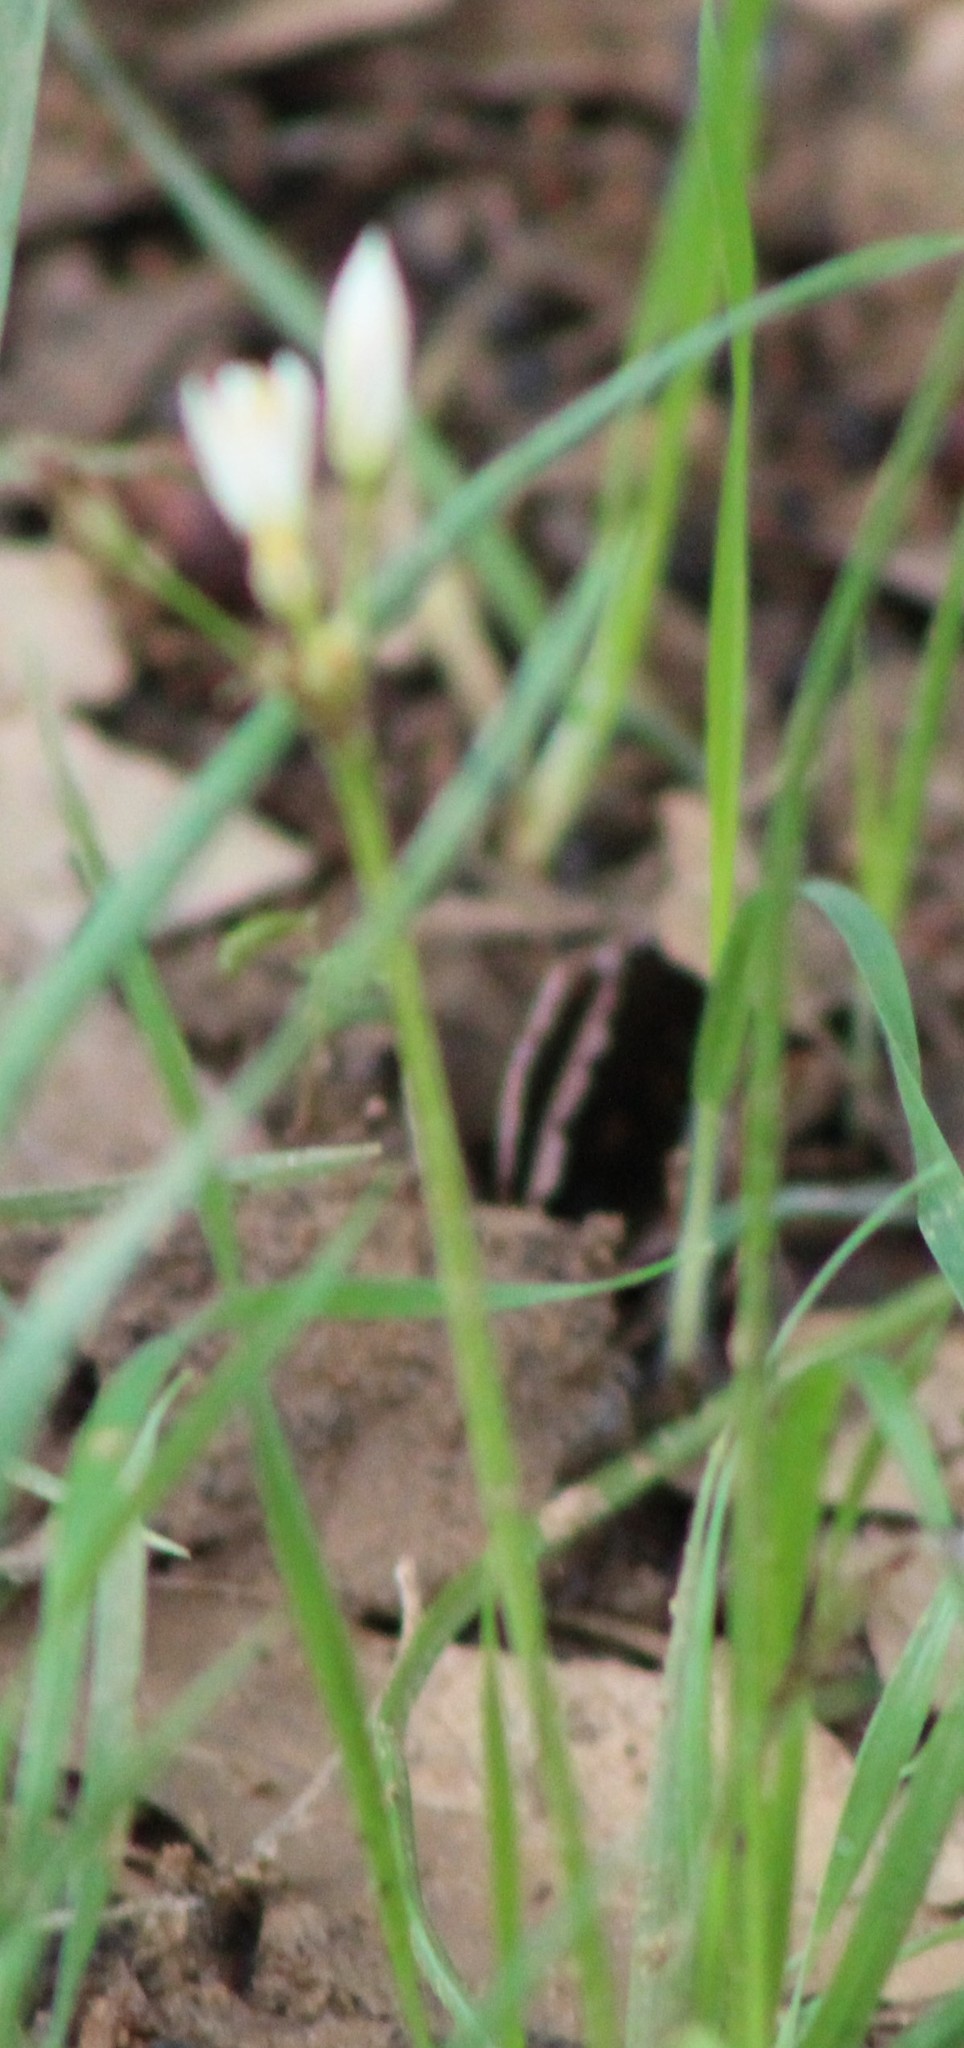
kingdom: Plantae
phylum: Tracheophyta
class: Liliopsida
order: Asparagales
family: Amaryllidaceae
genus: Nothoscordum
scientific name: Nothoscordum bivalve
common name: Crow-poison
